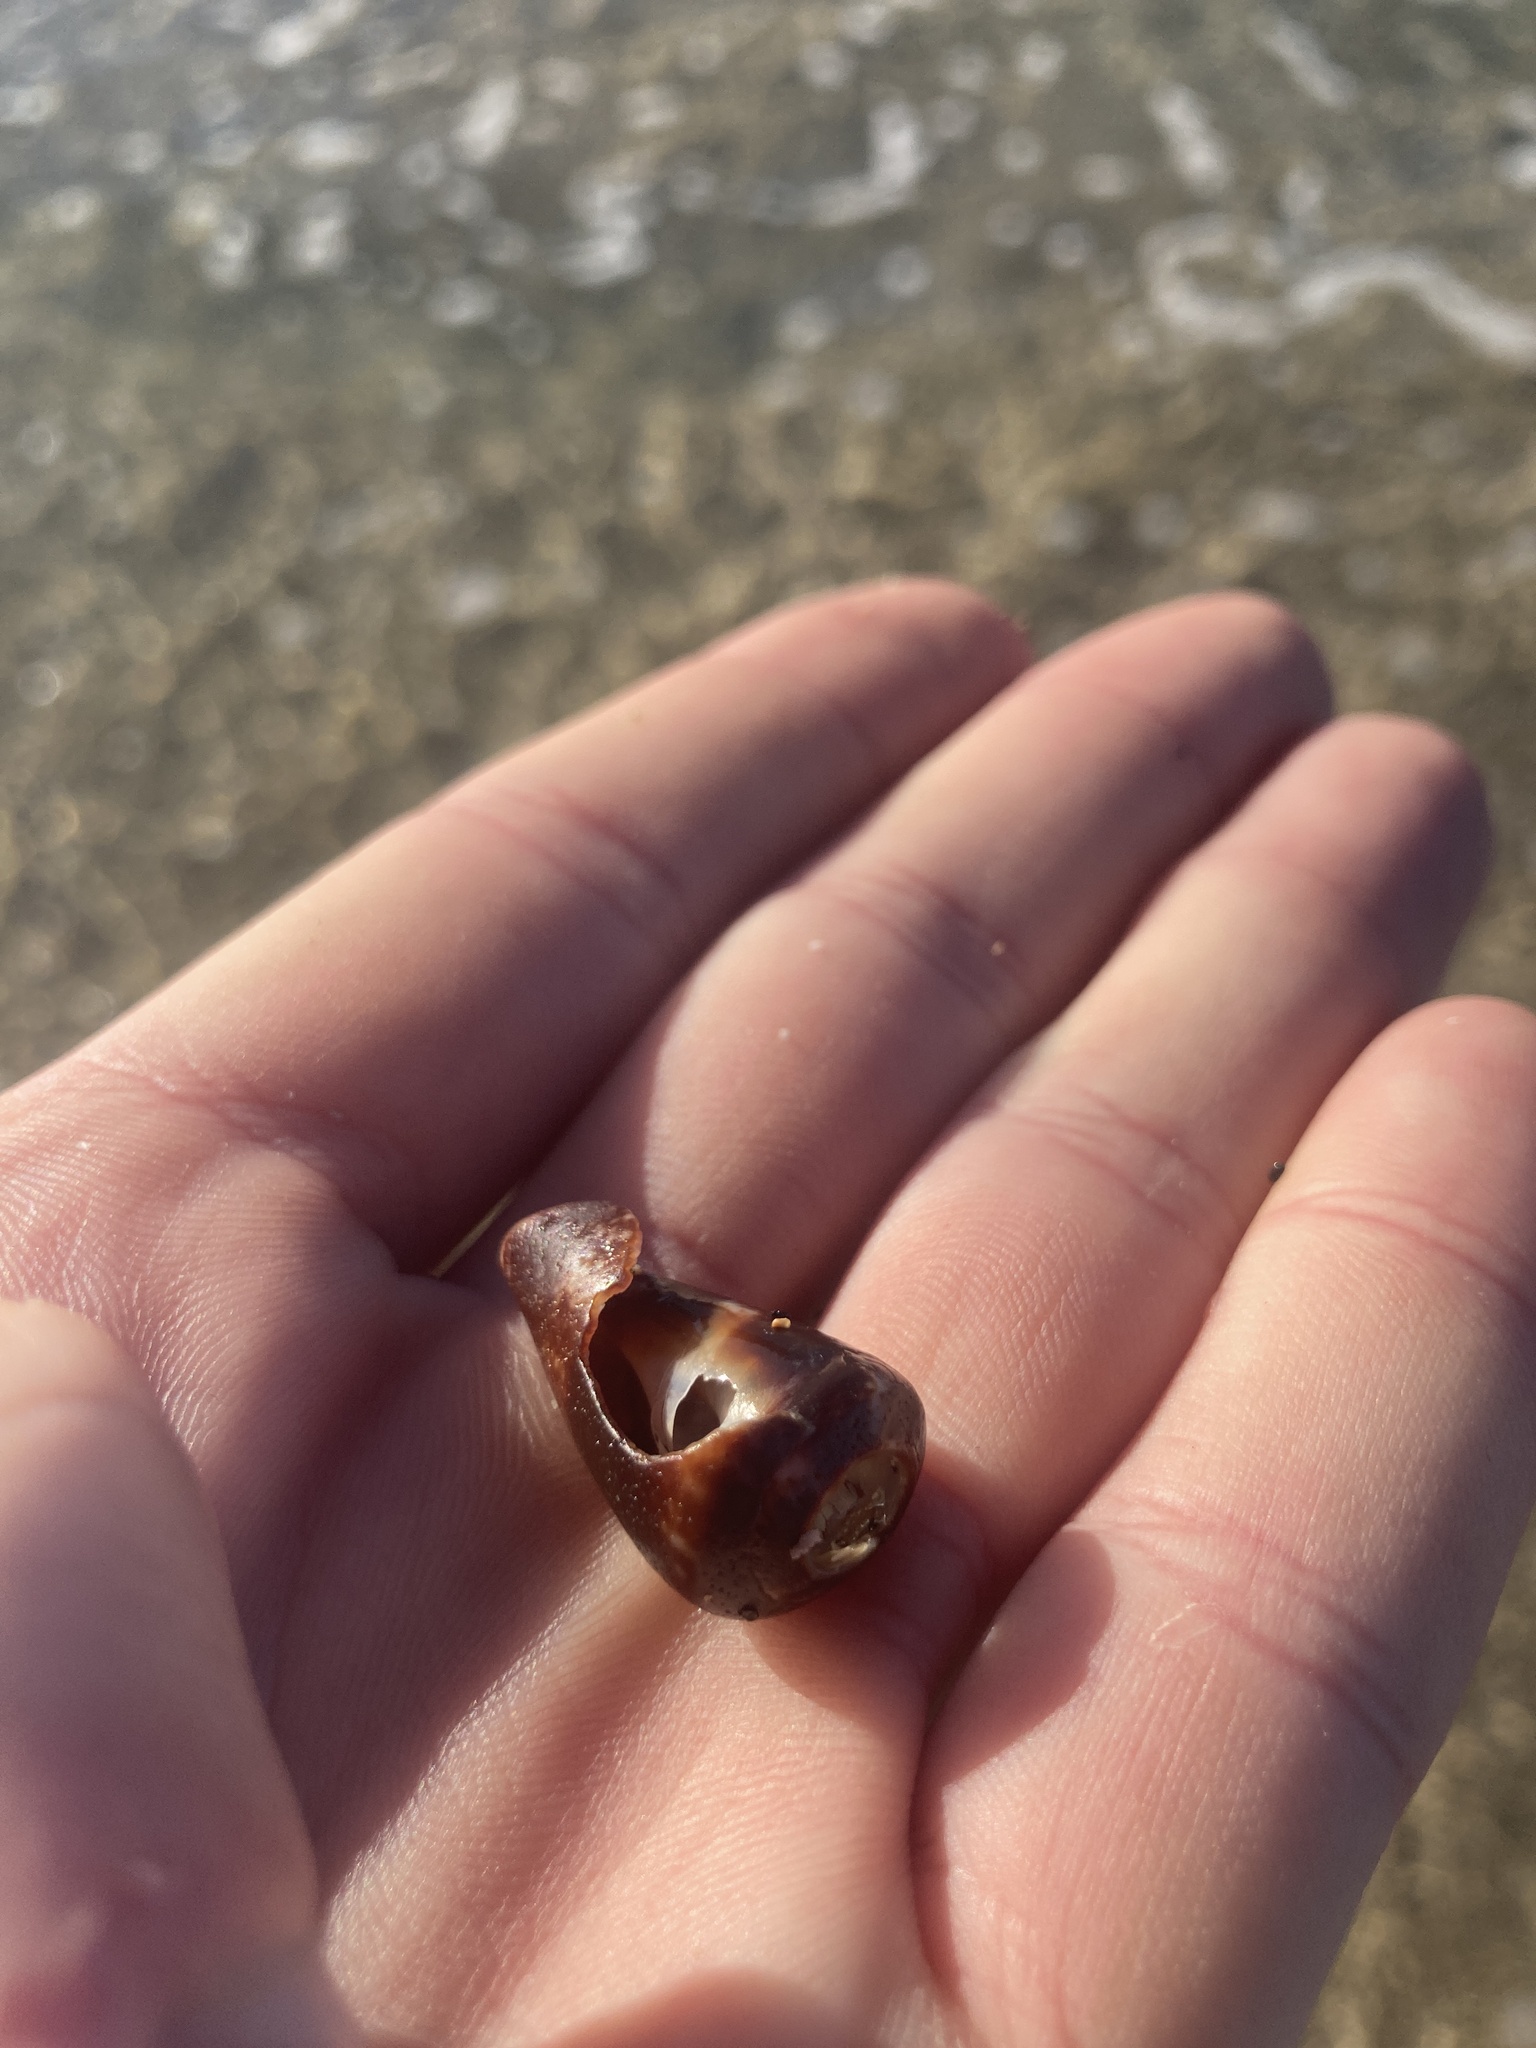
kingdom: Animalia
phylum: Mollusca
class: Gastropoda
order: Neogastropoda
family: Conidae
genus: Conus
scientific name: Conus papilliferus
